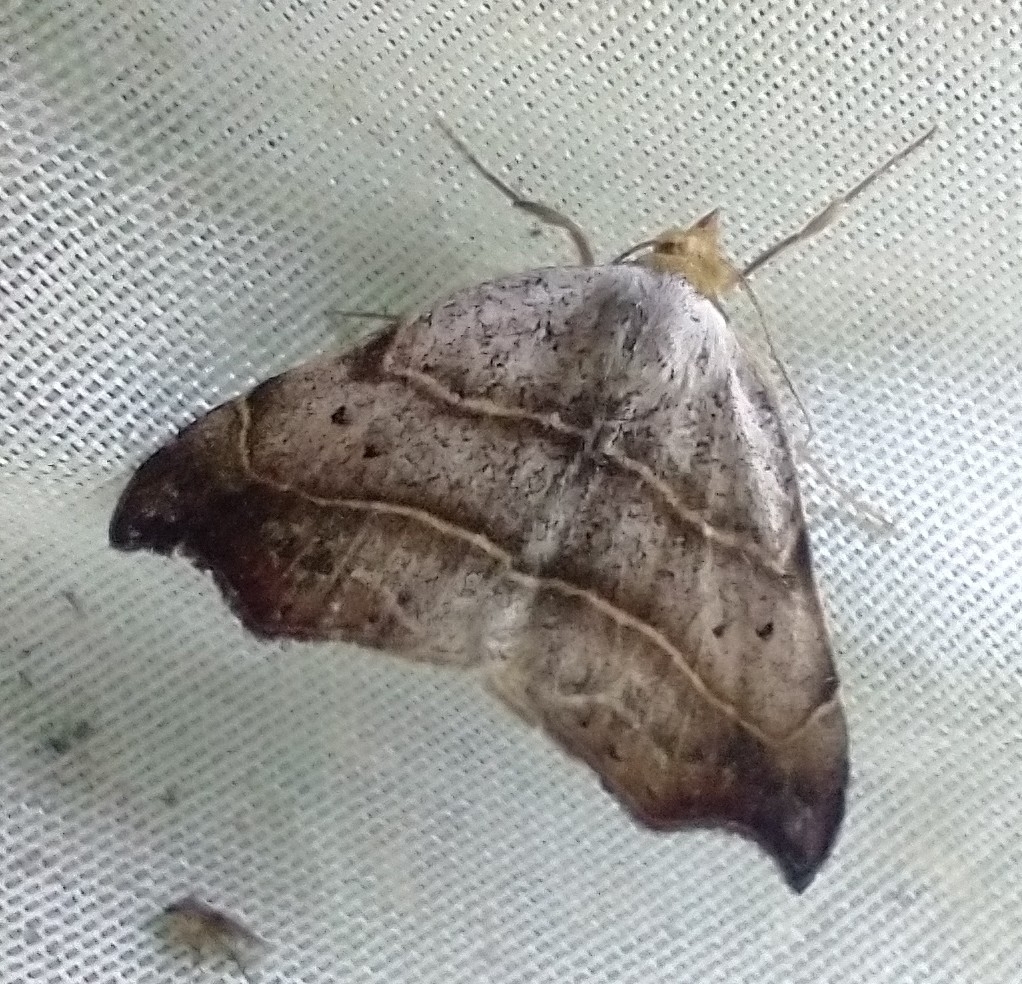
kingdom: Animalia
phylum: Arthropoda
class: Insecta
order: Lepidoptera
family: Erebidae
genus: Laspeyria
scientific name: Laspeyria flexula
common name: Beautiful hook-tip
